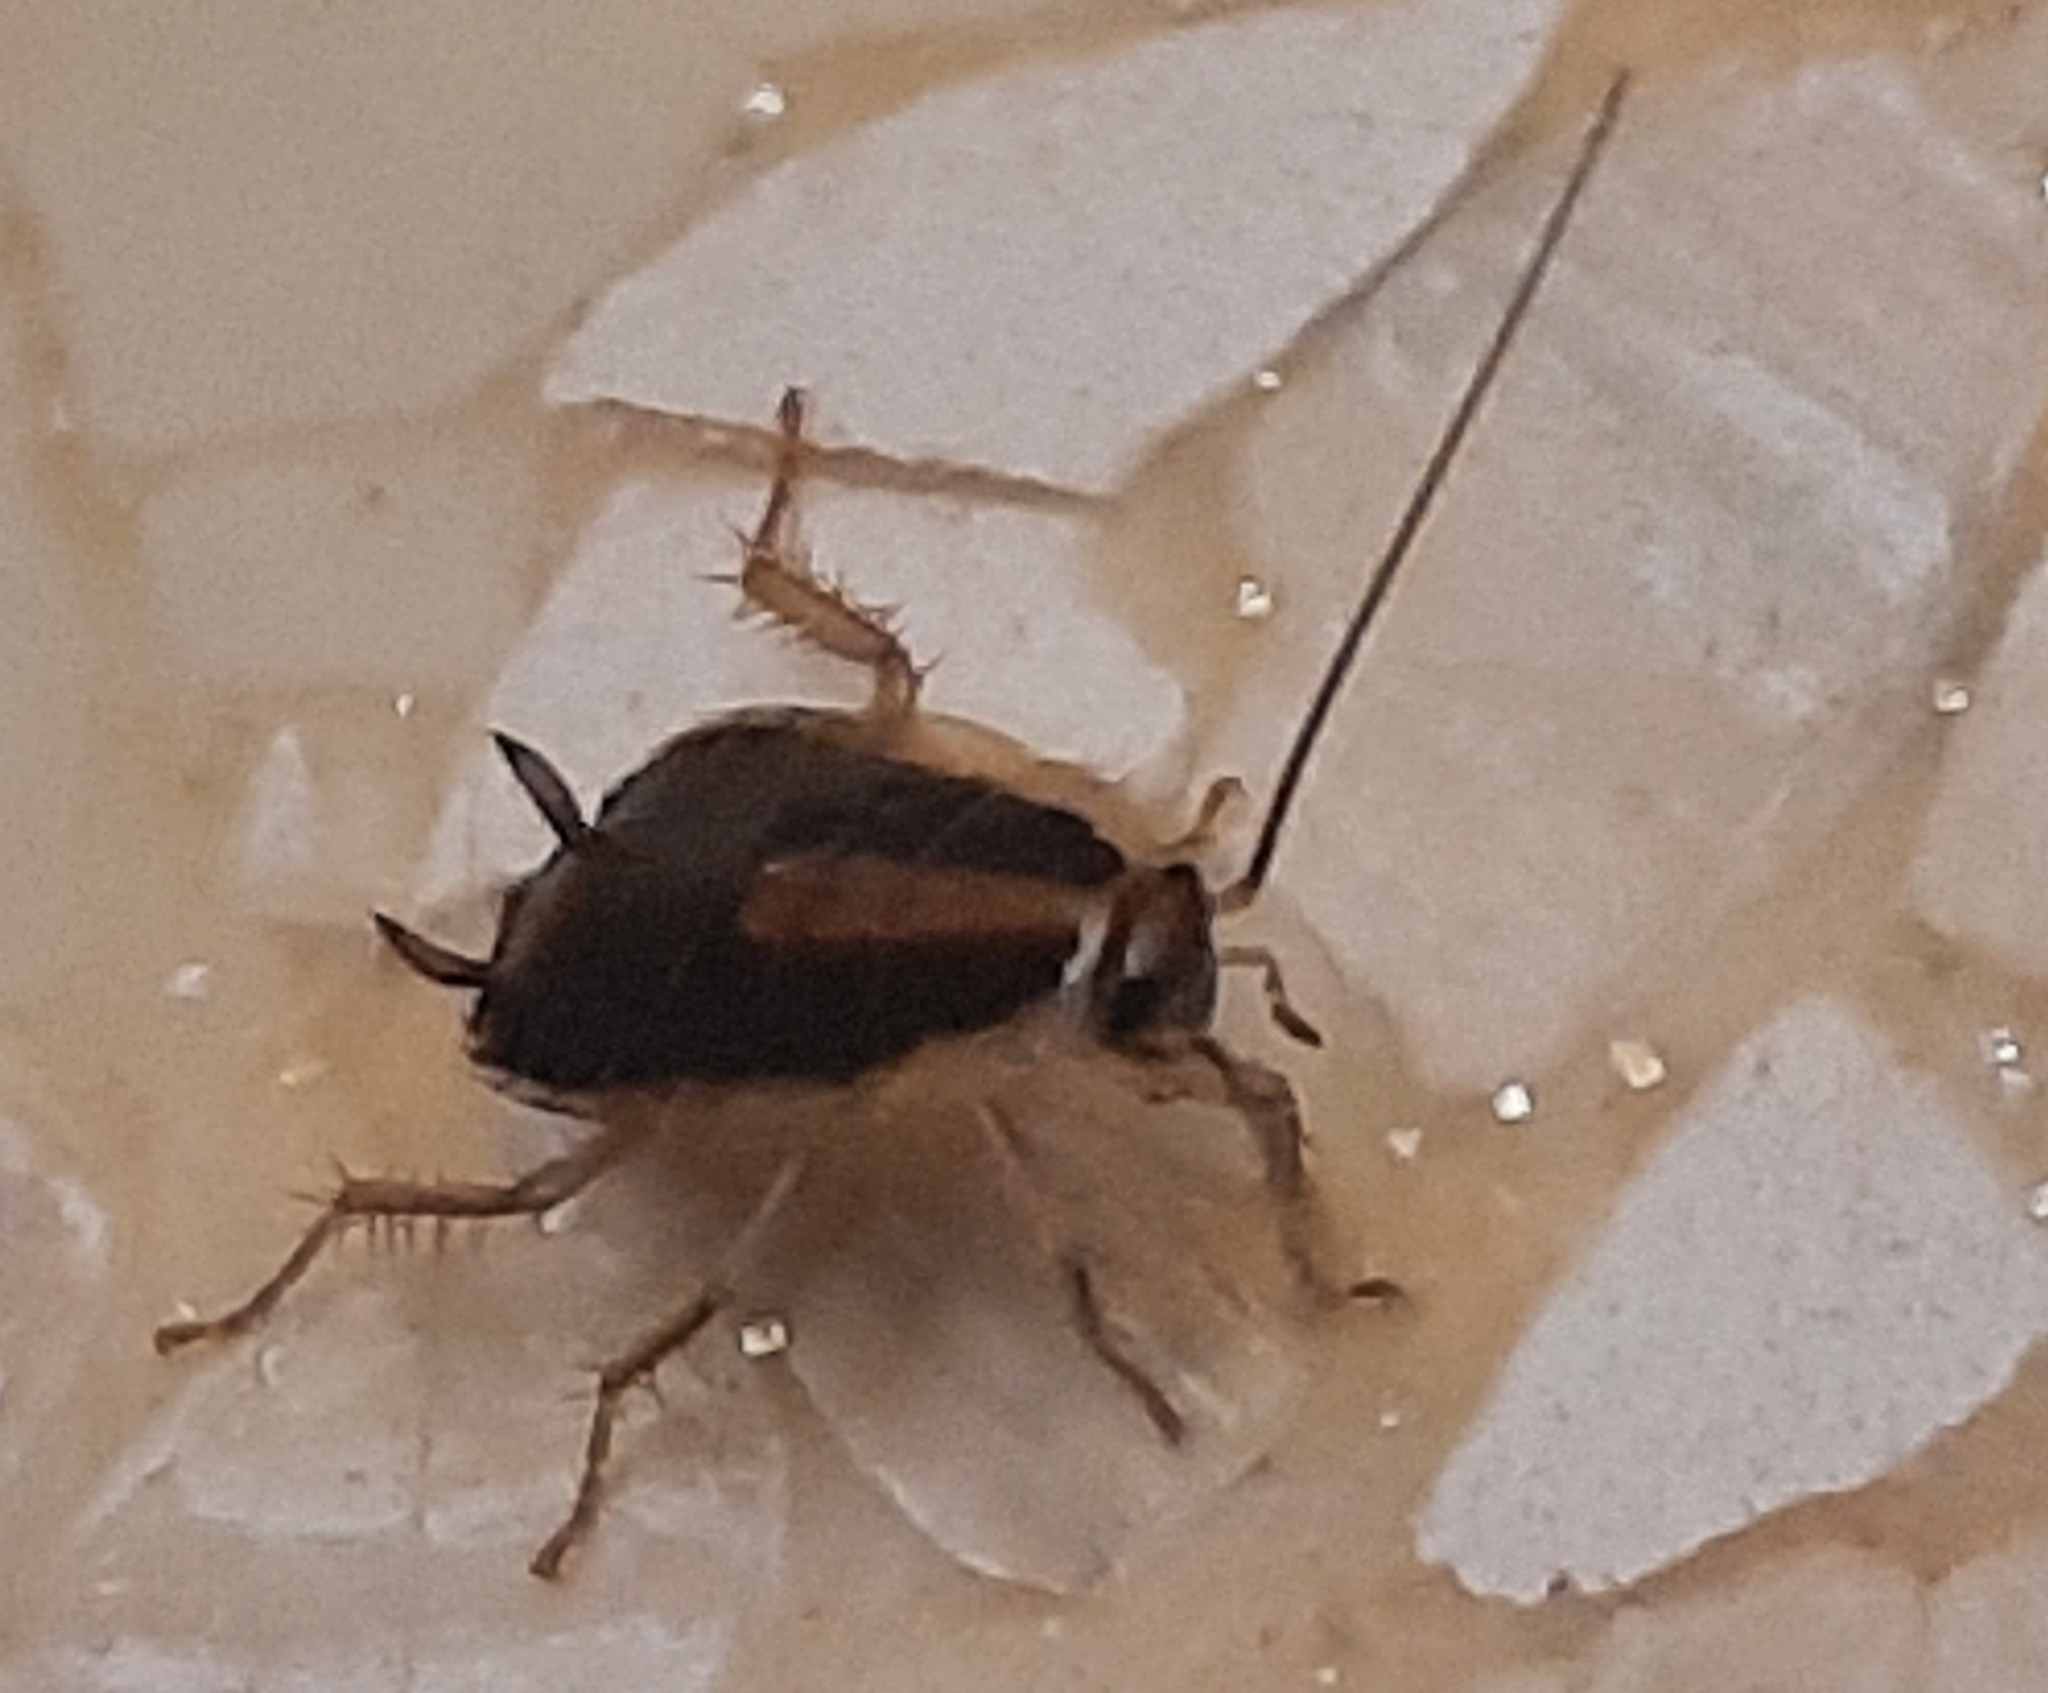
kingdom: Animalia
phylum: Arthropoda
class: Insecta
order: Blattodea
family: Ectobiidae
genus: Blattella
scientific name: Blattella germanica
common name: German cockroach
